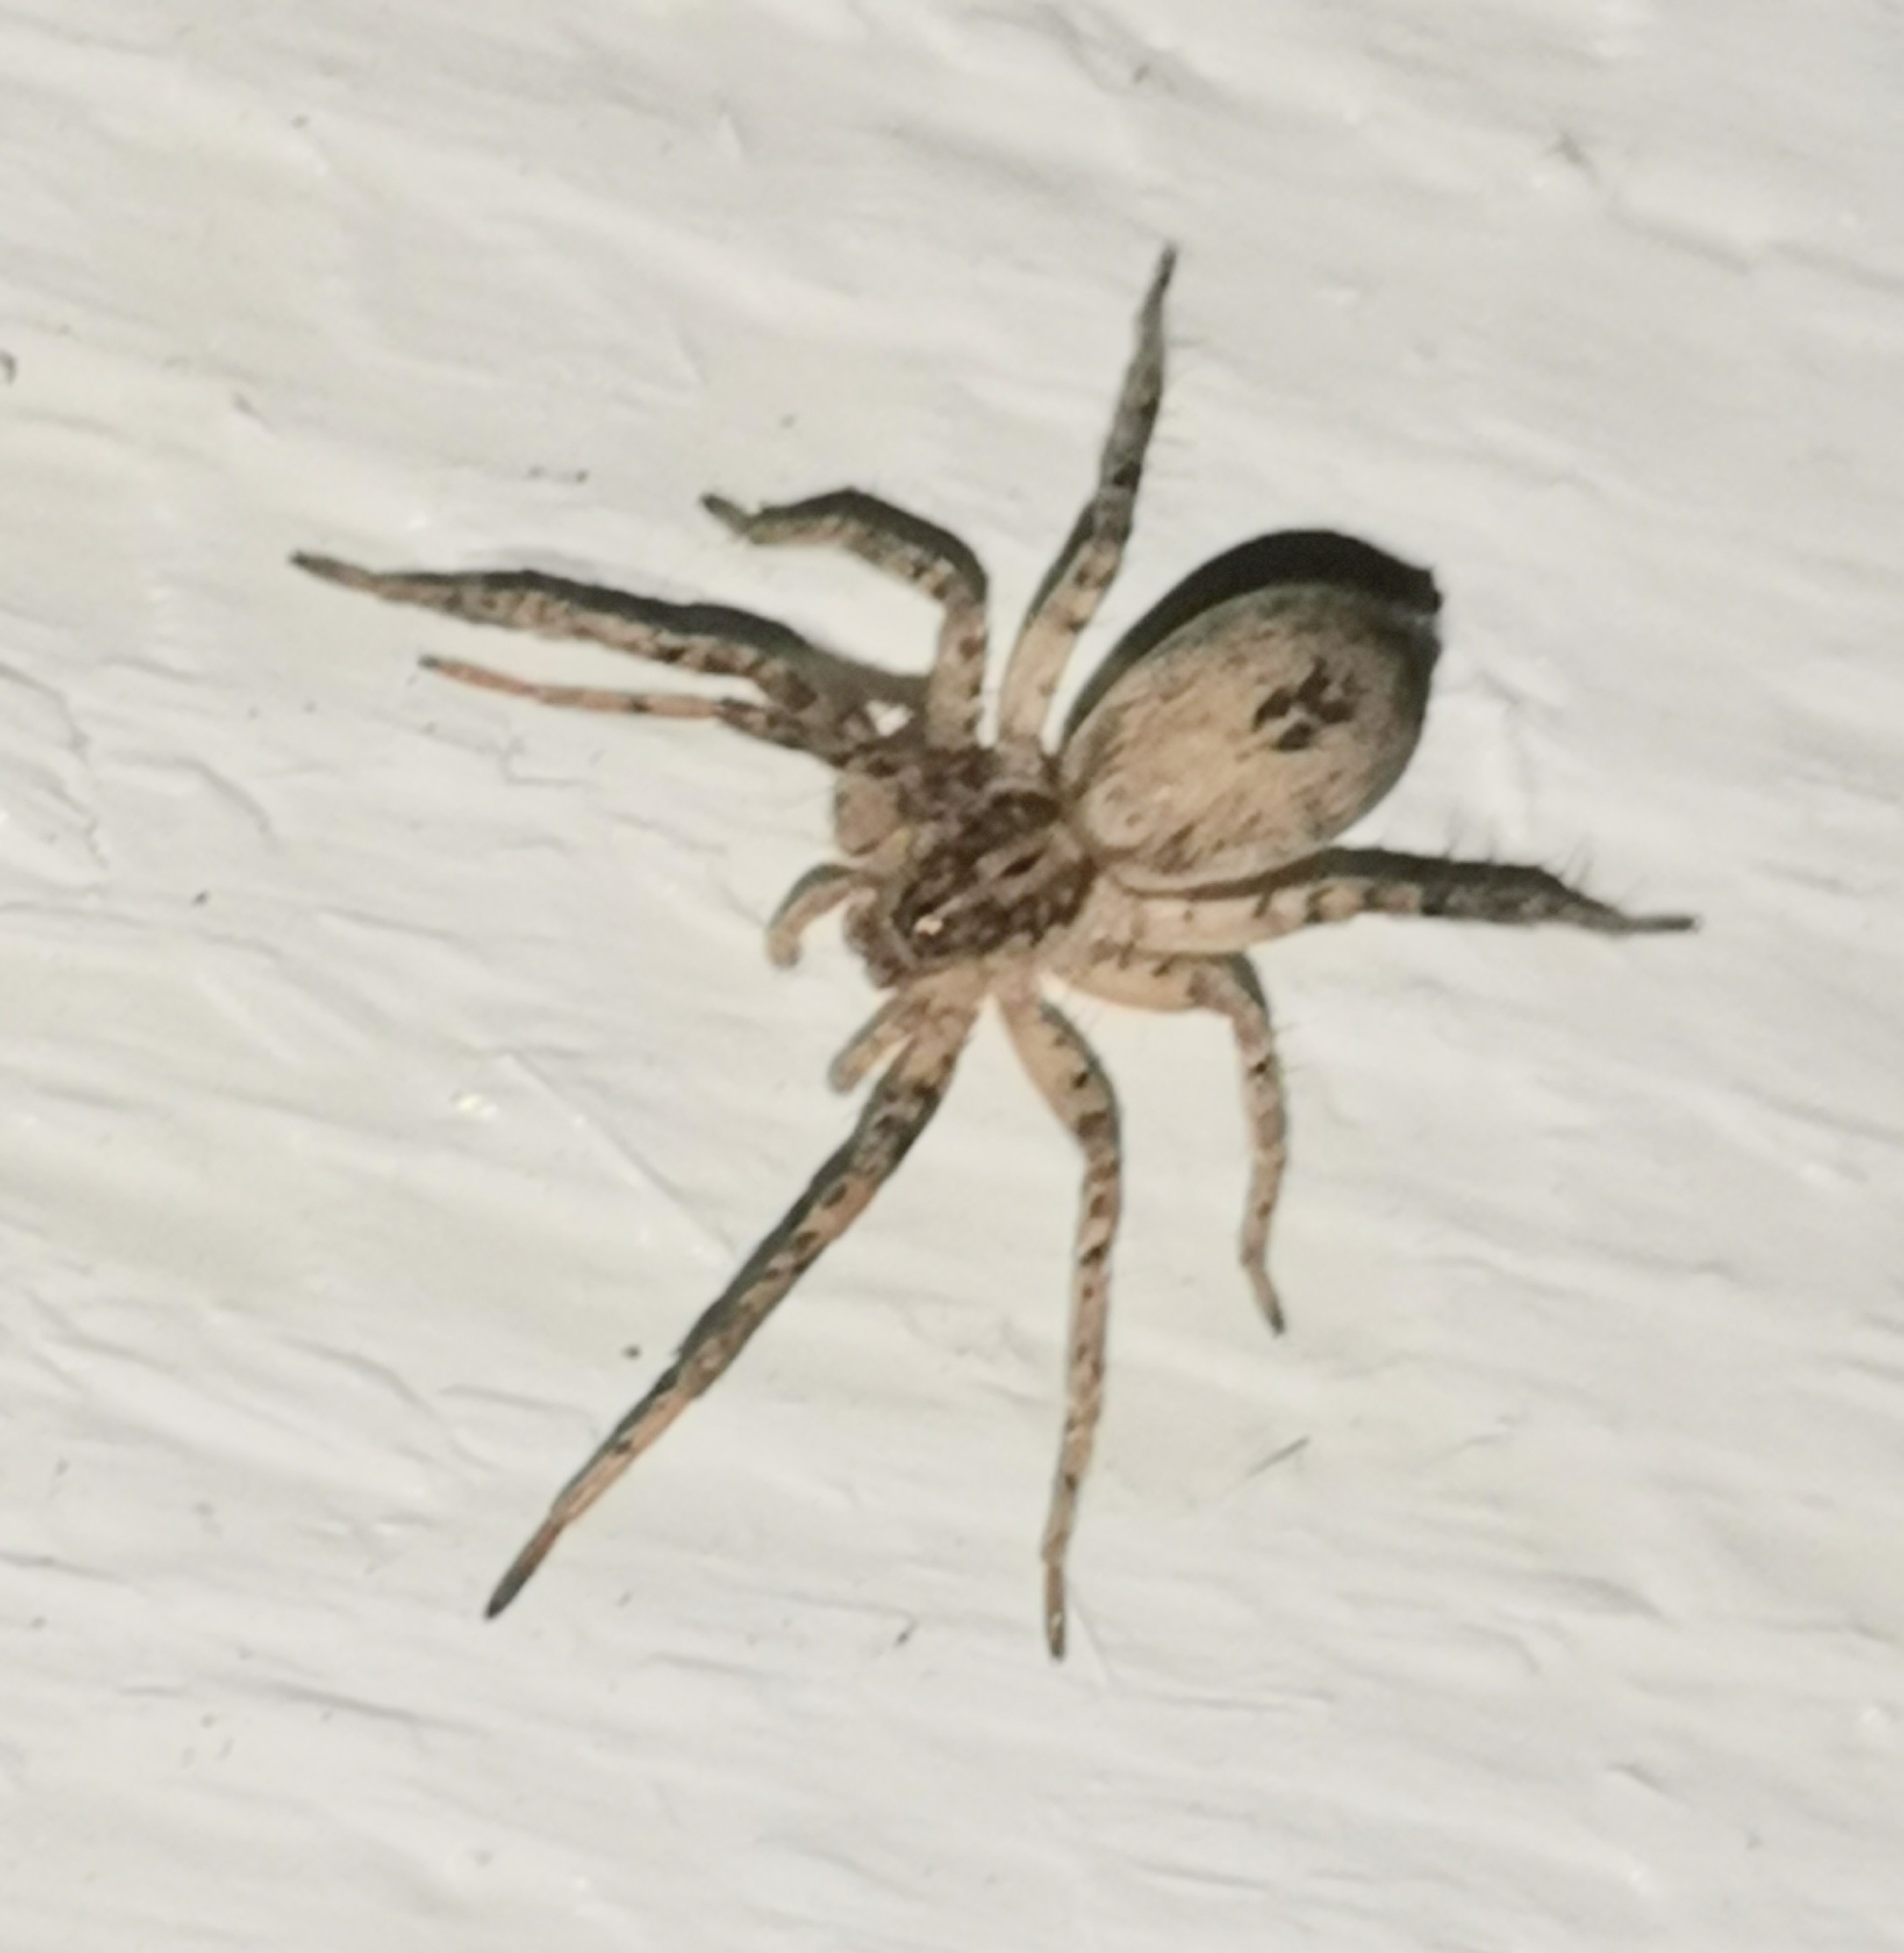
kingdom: Animalia
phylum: Arthropoda
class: Arachnida
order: Araneae
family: Anyphaenidae
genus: Anyphaena
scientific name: Anyphaena accentuata
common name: Buzzing spider
